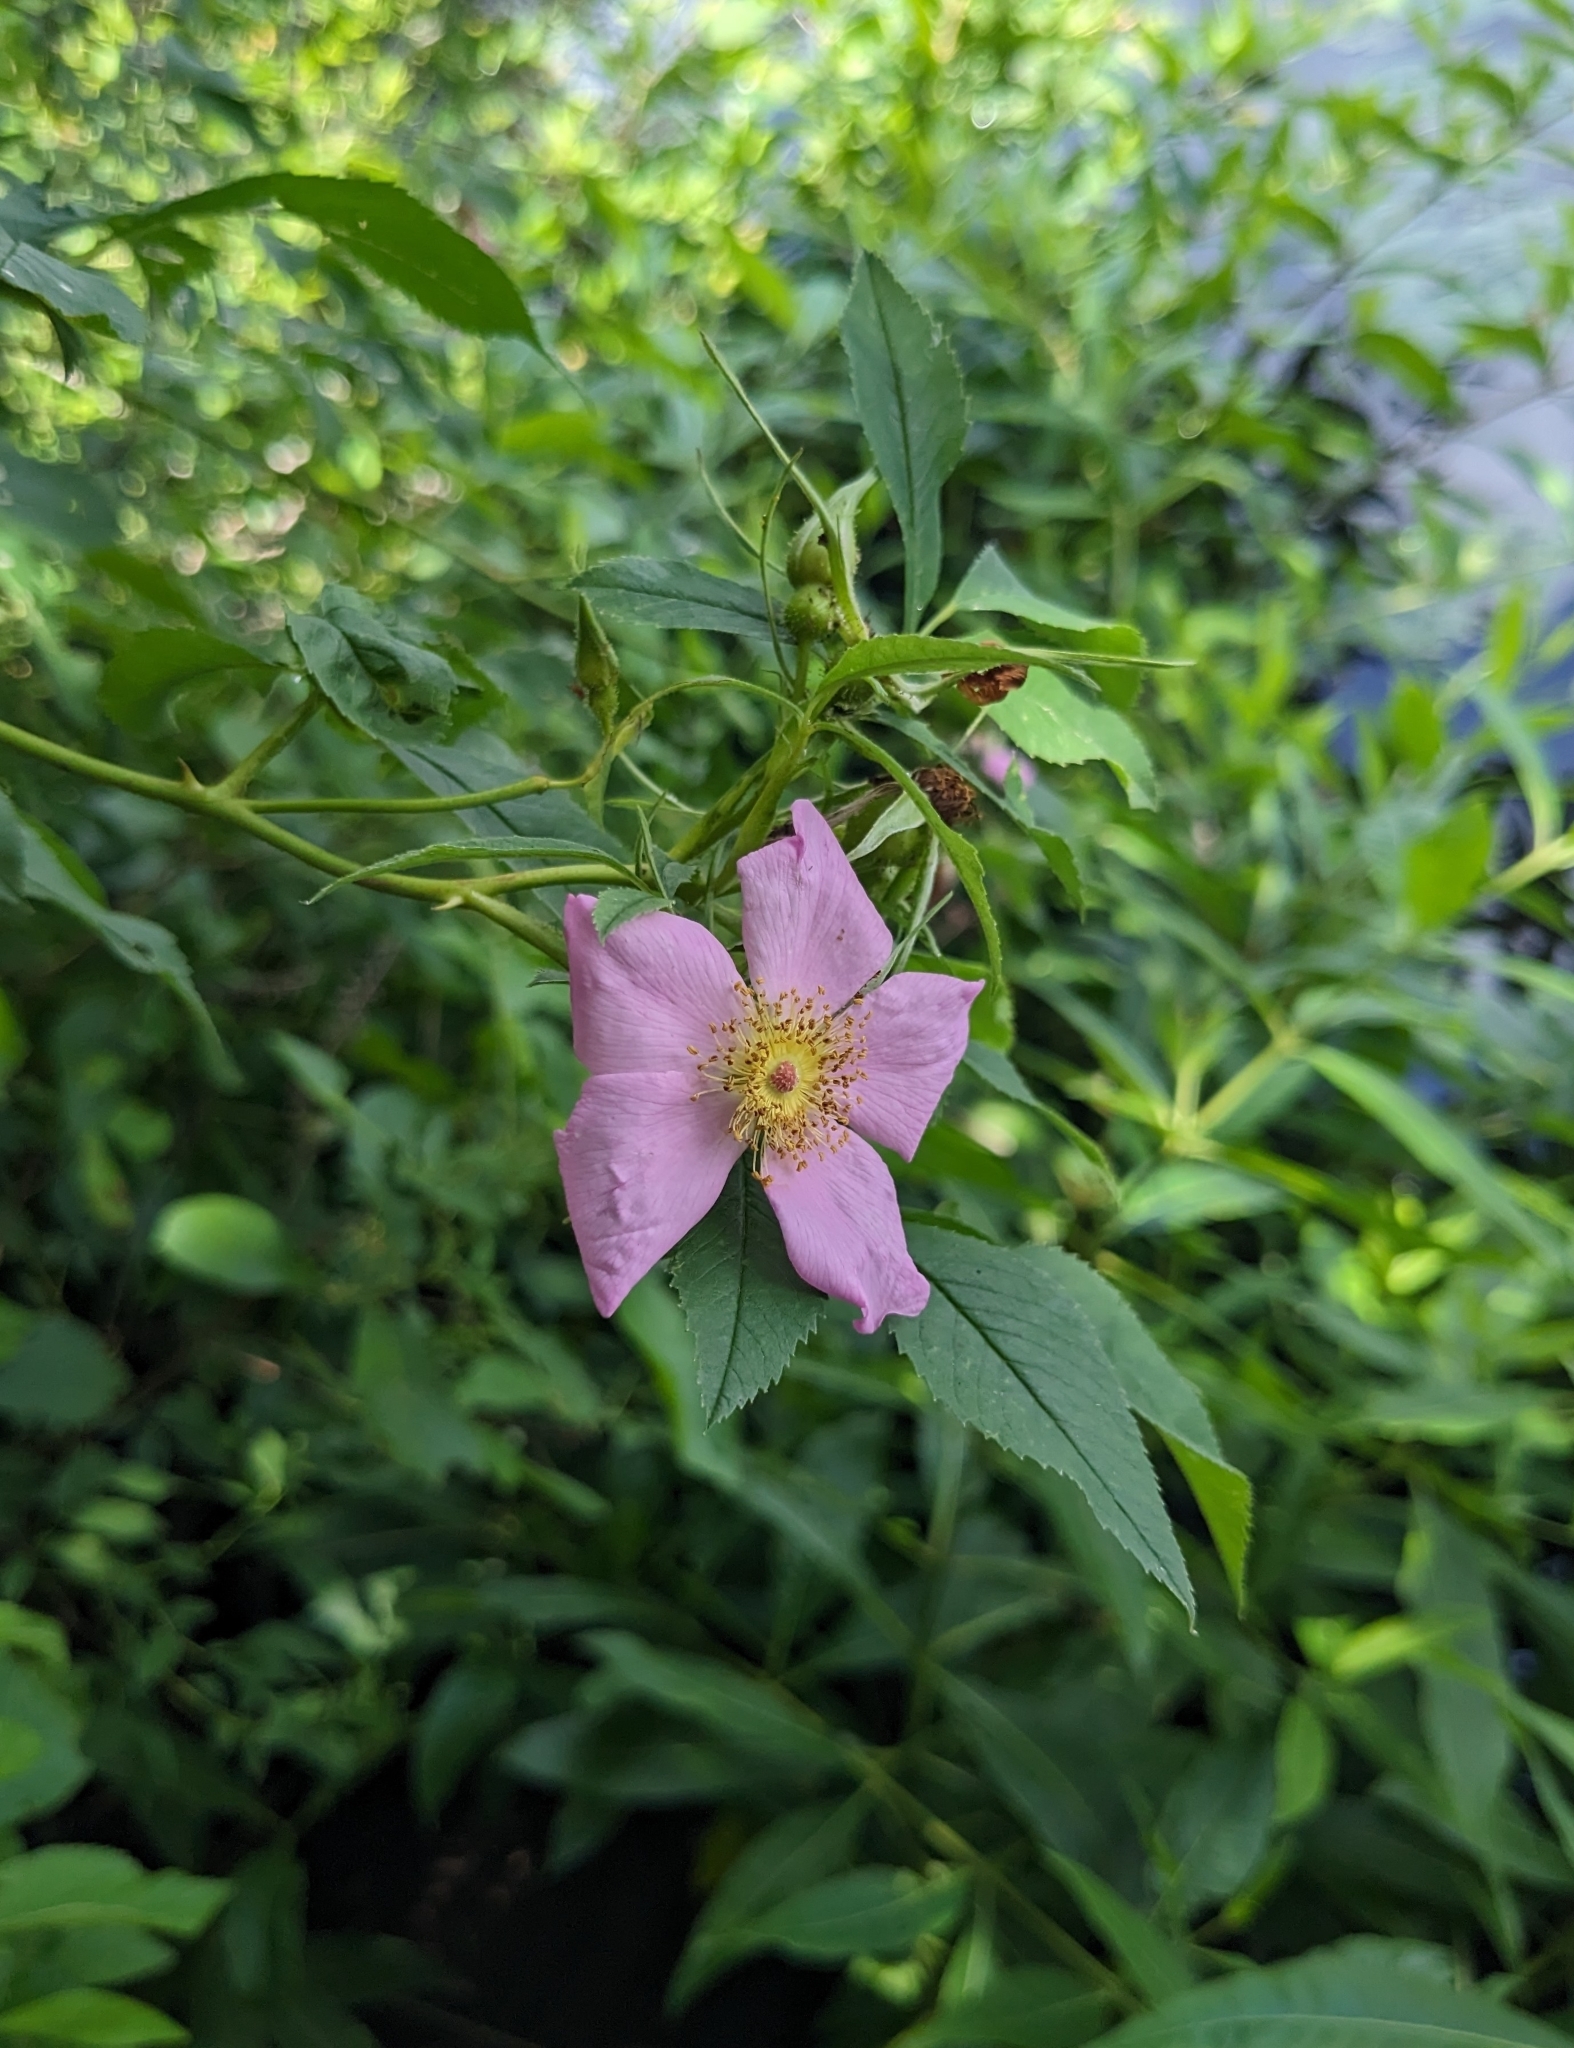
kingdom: Plantae
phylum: Tracheophyta
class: Magnoliopsida
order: Rosales
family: Rosaceae
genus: Rosa
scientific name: Rosa palustris
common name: Swamp rose
